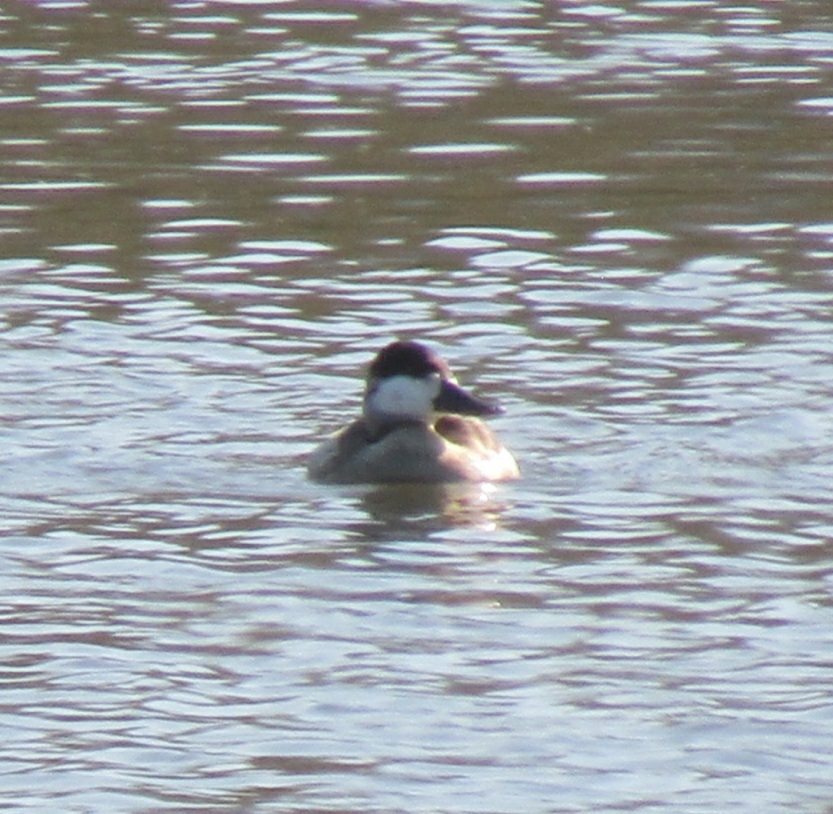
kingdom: Animalia
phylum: Chordata
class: Aves
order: Anseriformes
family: Anatidae
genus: Oxyura
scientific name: Oxyura jamaicensis
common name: Ruddy duck
